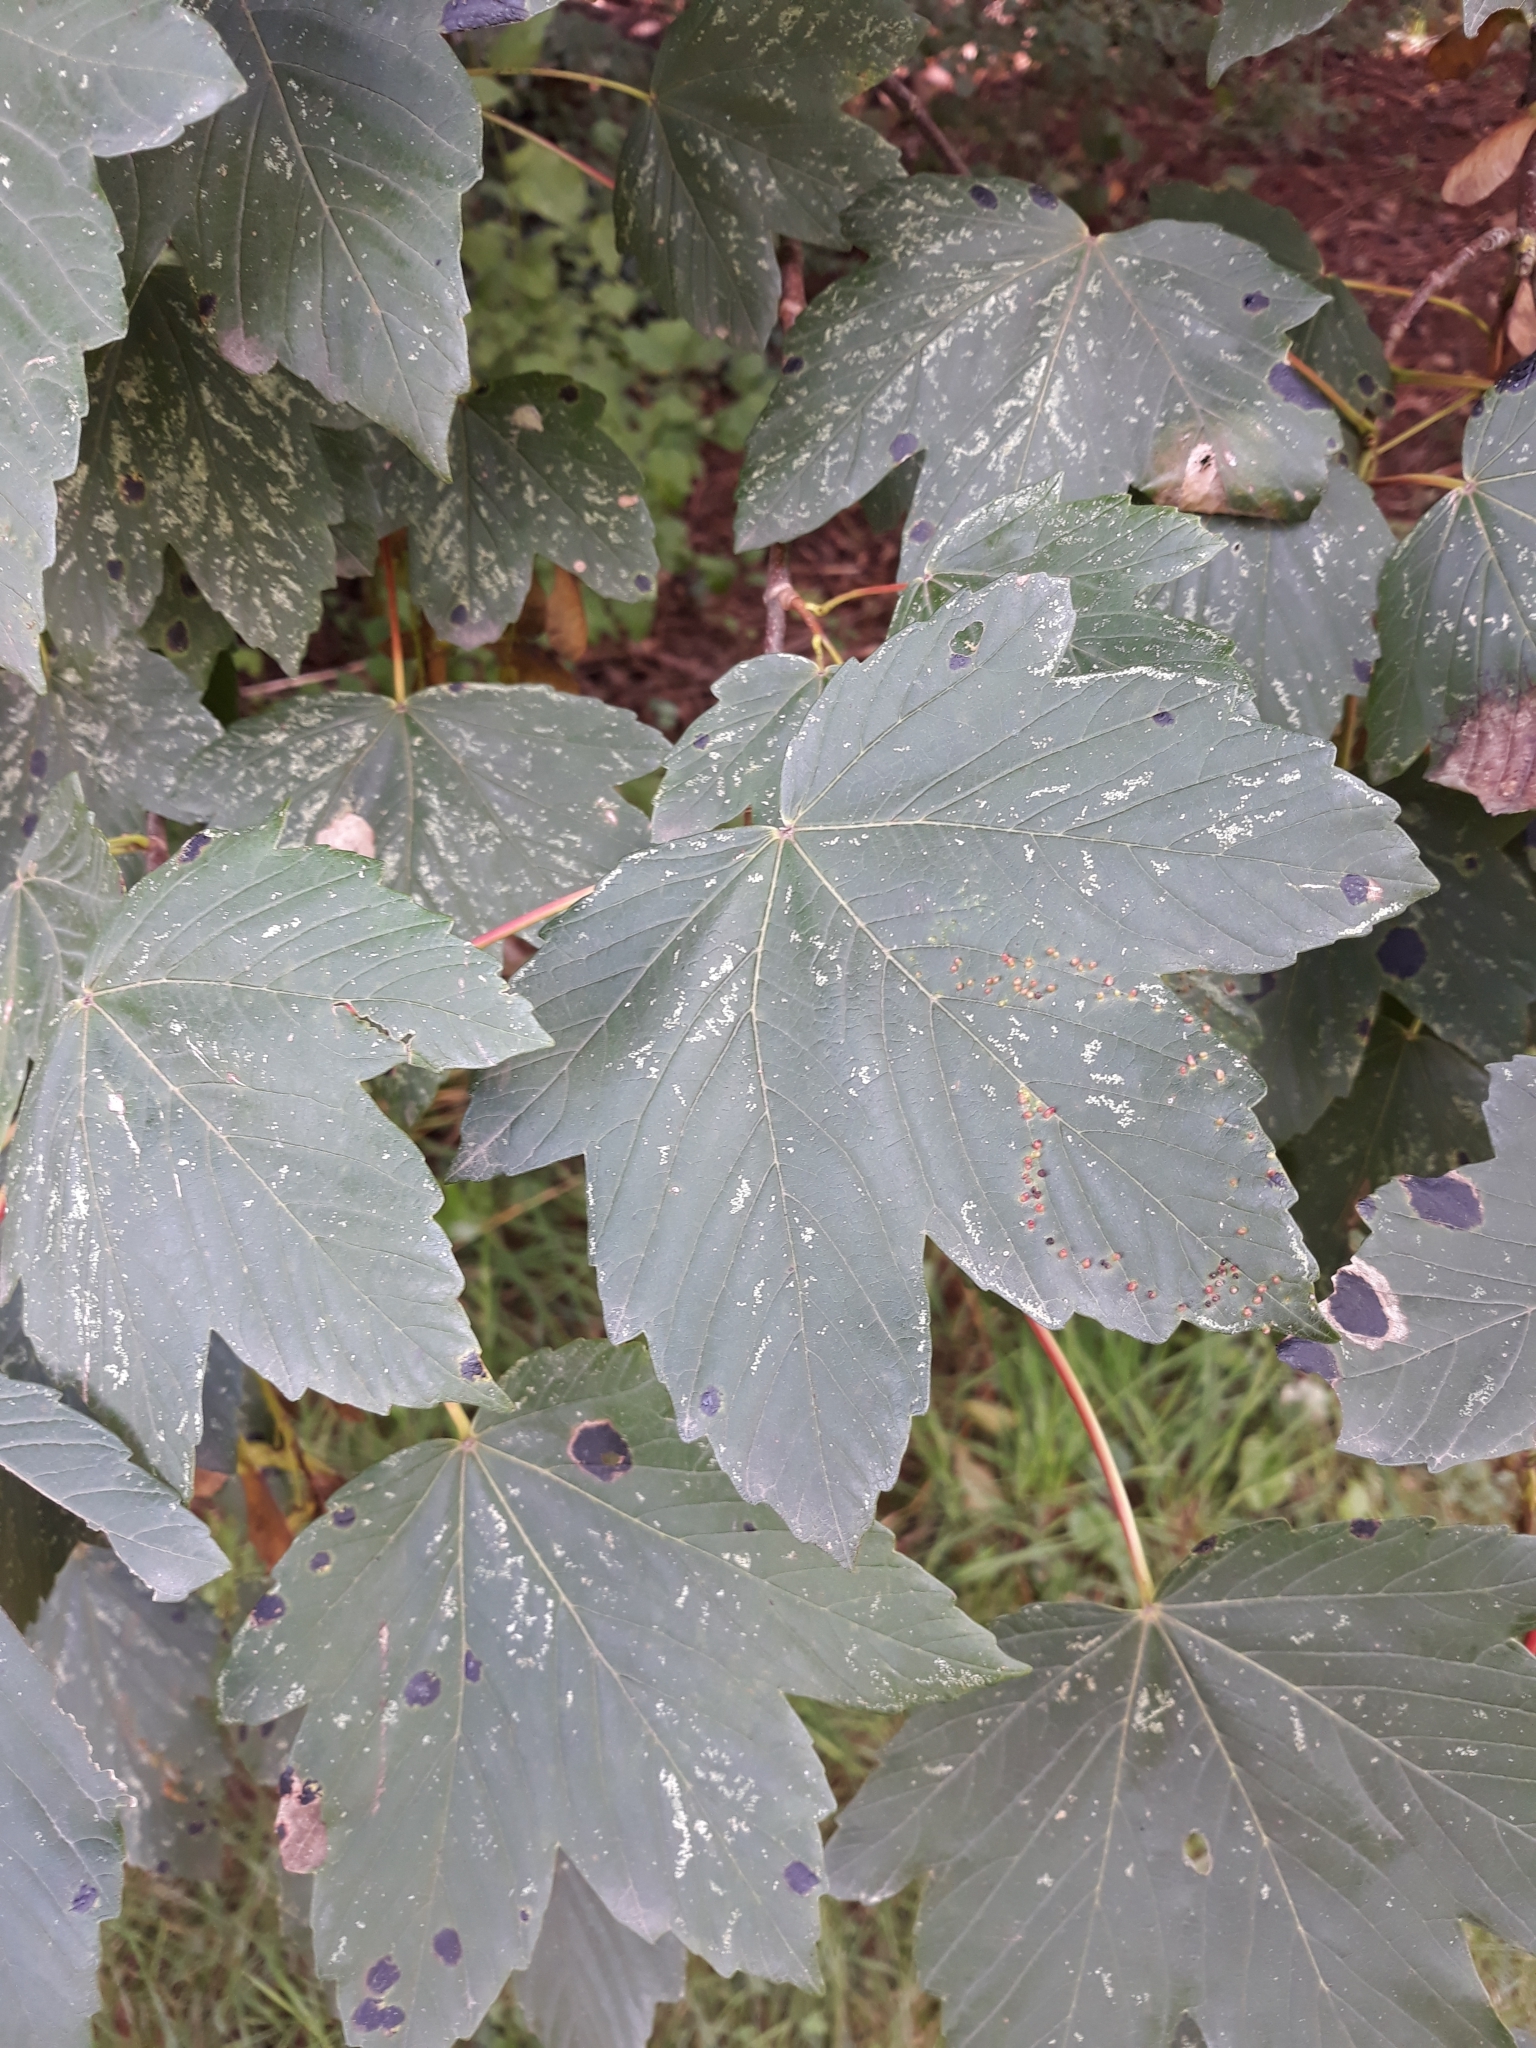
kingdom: Plantae
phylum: Tracheophyta
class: Magnoliopsida
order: Sapindales
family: Sapindaceae
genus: Acer
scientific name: Acer pseudoplatanus
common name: Sycamore
